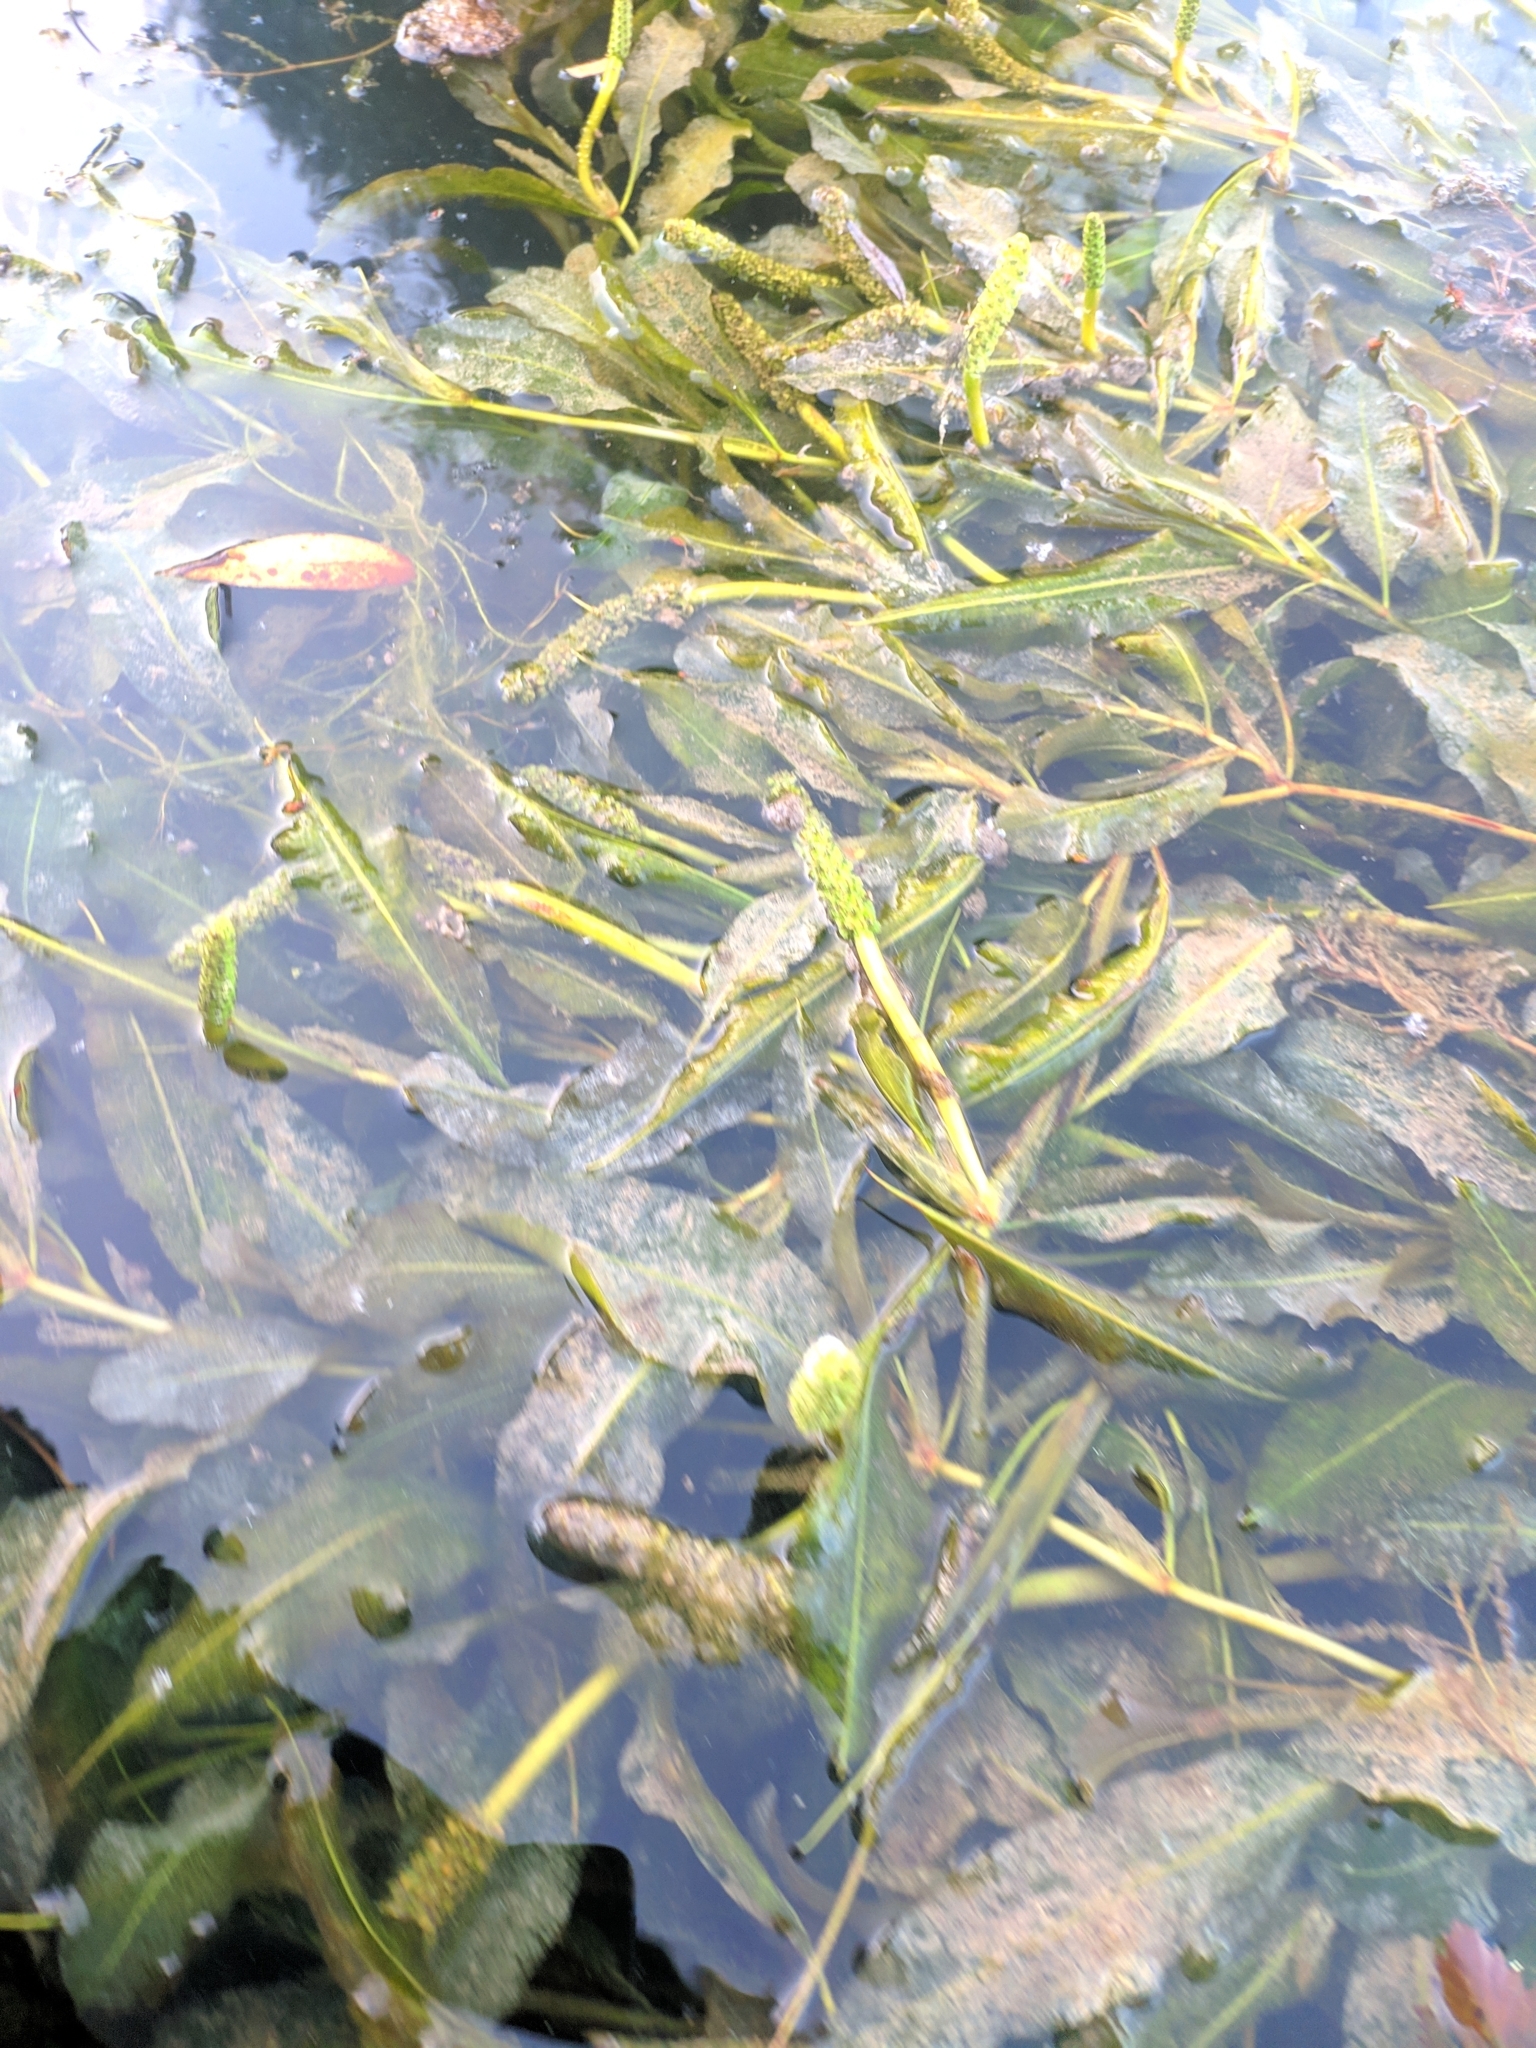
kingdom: Plantae
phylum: Tracheophyta
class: Liliopsida
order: Alismatales
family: Potamogetonaceae
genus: Potamogeton
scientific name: Potamogeton lucens
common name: Shining pondweed
